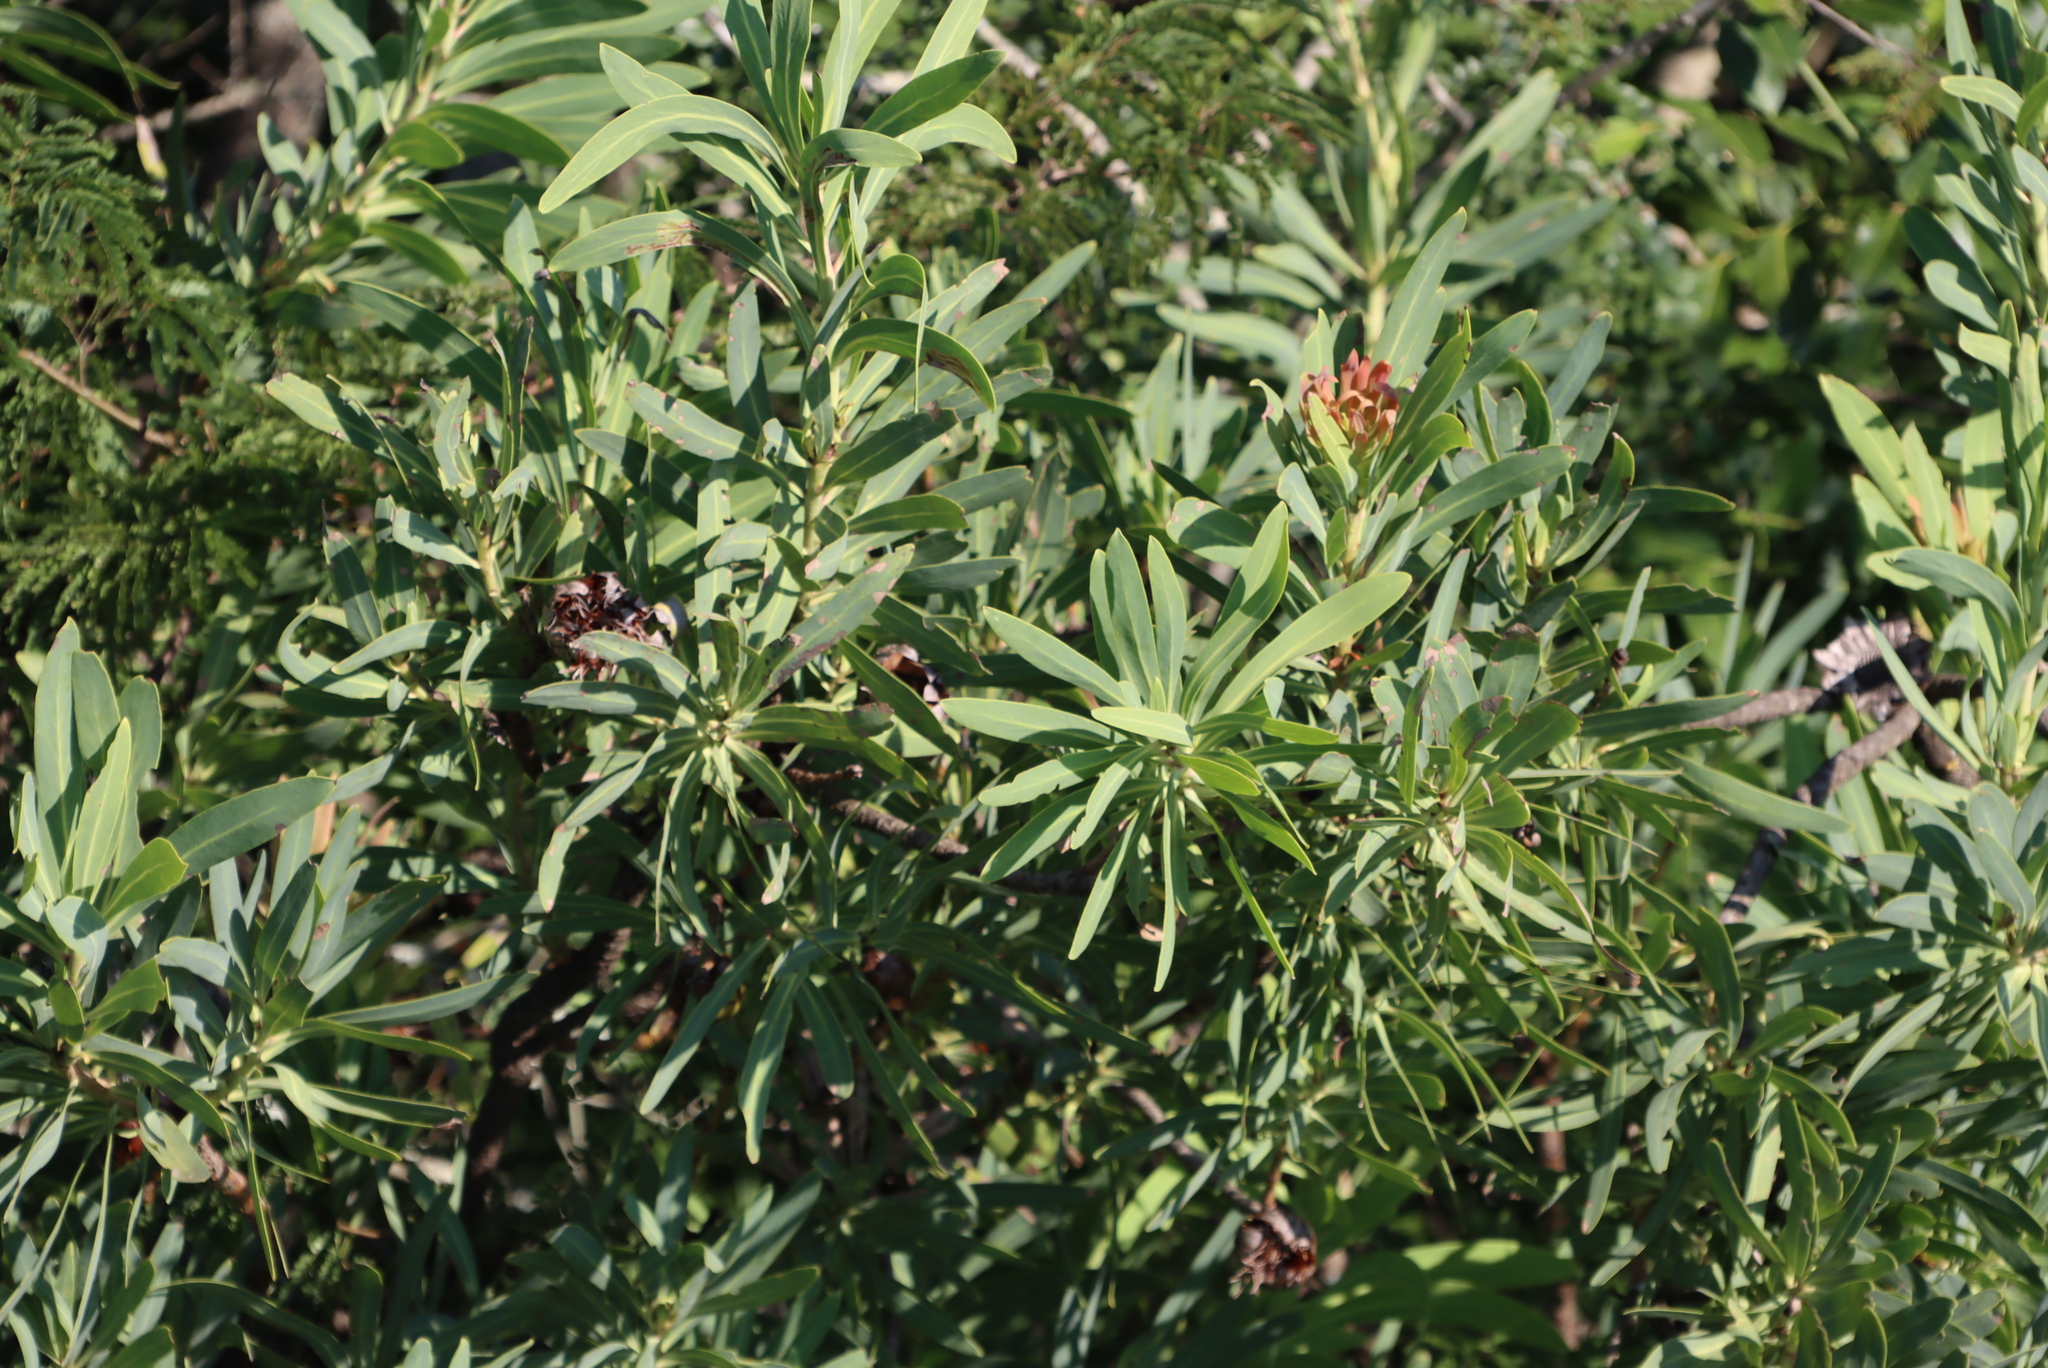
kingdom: Plantae
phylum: Tracheophyta
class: Magnoliopsida
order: Proteales
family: Proteaceae
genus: Protea
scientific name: Protea caffra
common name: Common sugarbush
